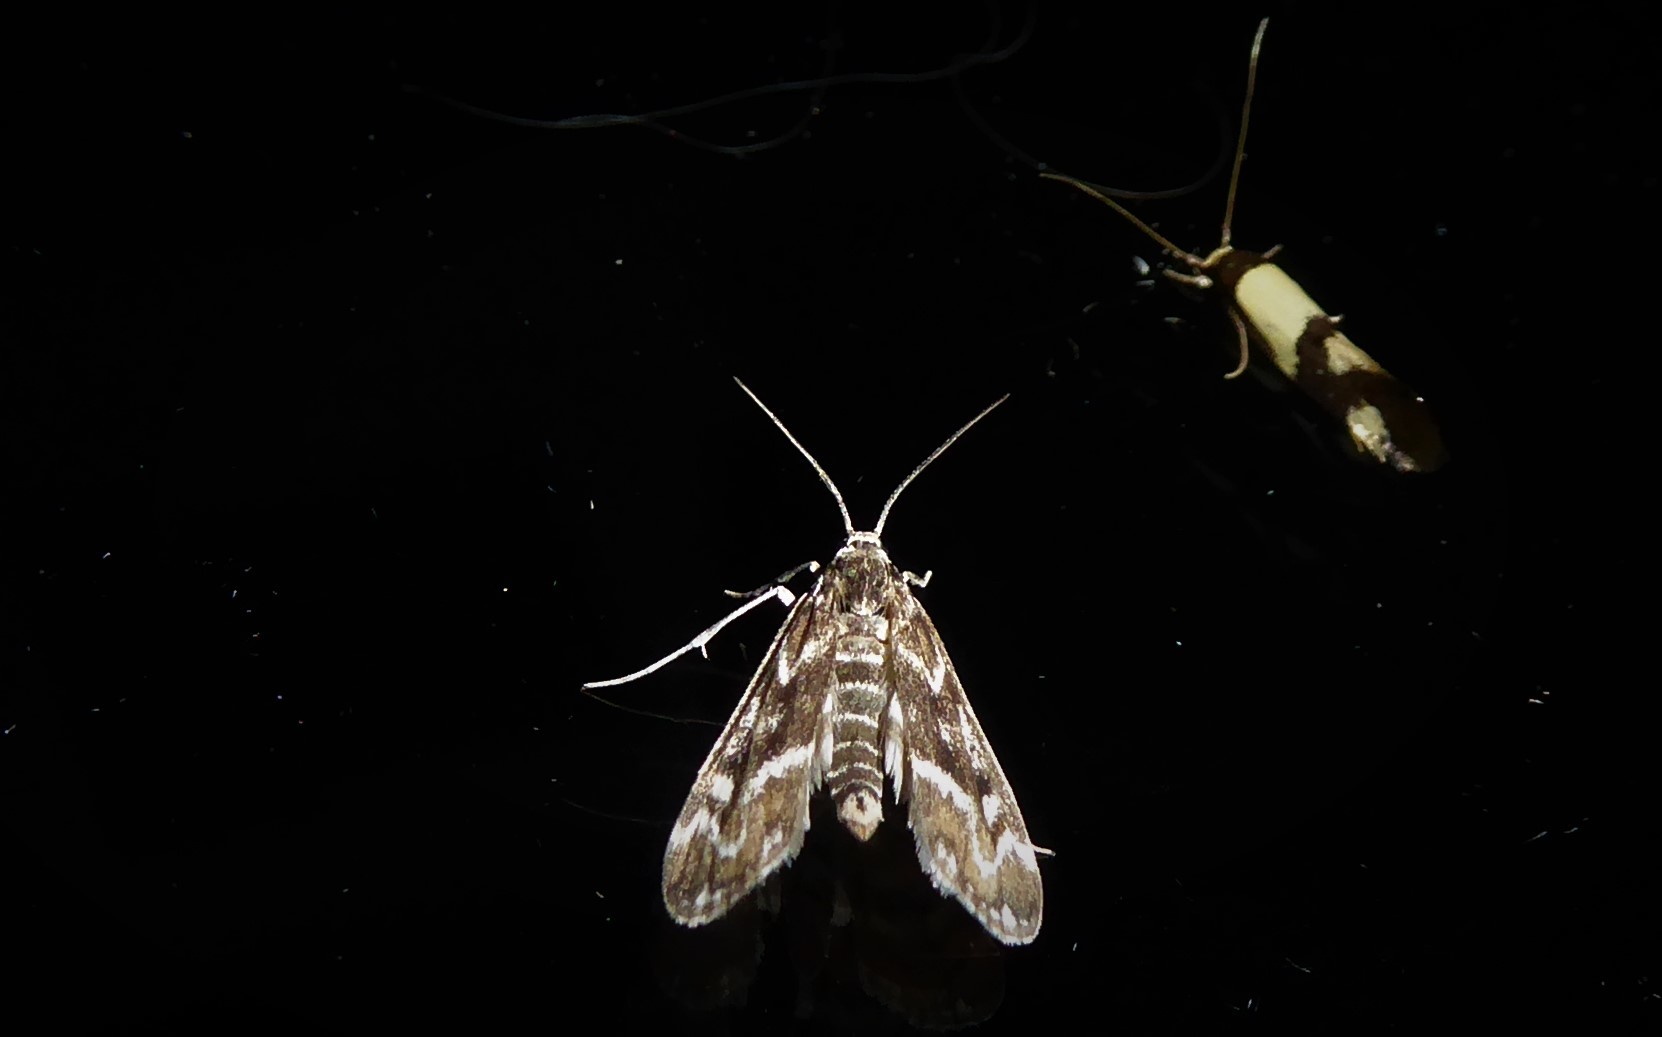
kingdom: Animalia
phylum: Arthropoda
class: Insecta
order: Lepidoptera
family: Crambidae
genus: Hygraula
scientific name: Hygraula nitens
